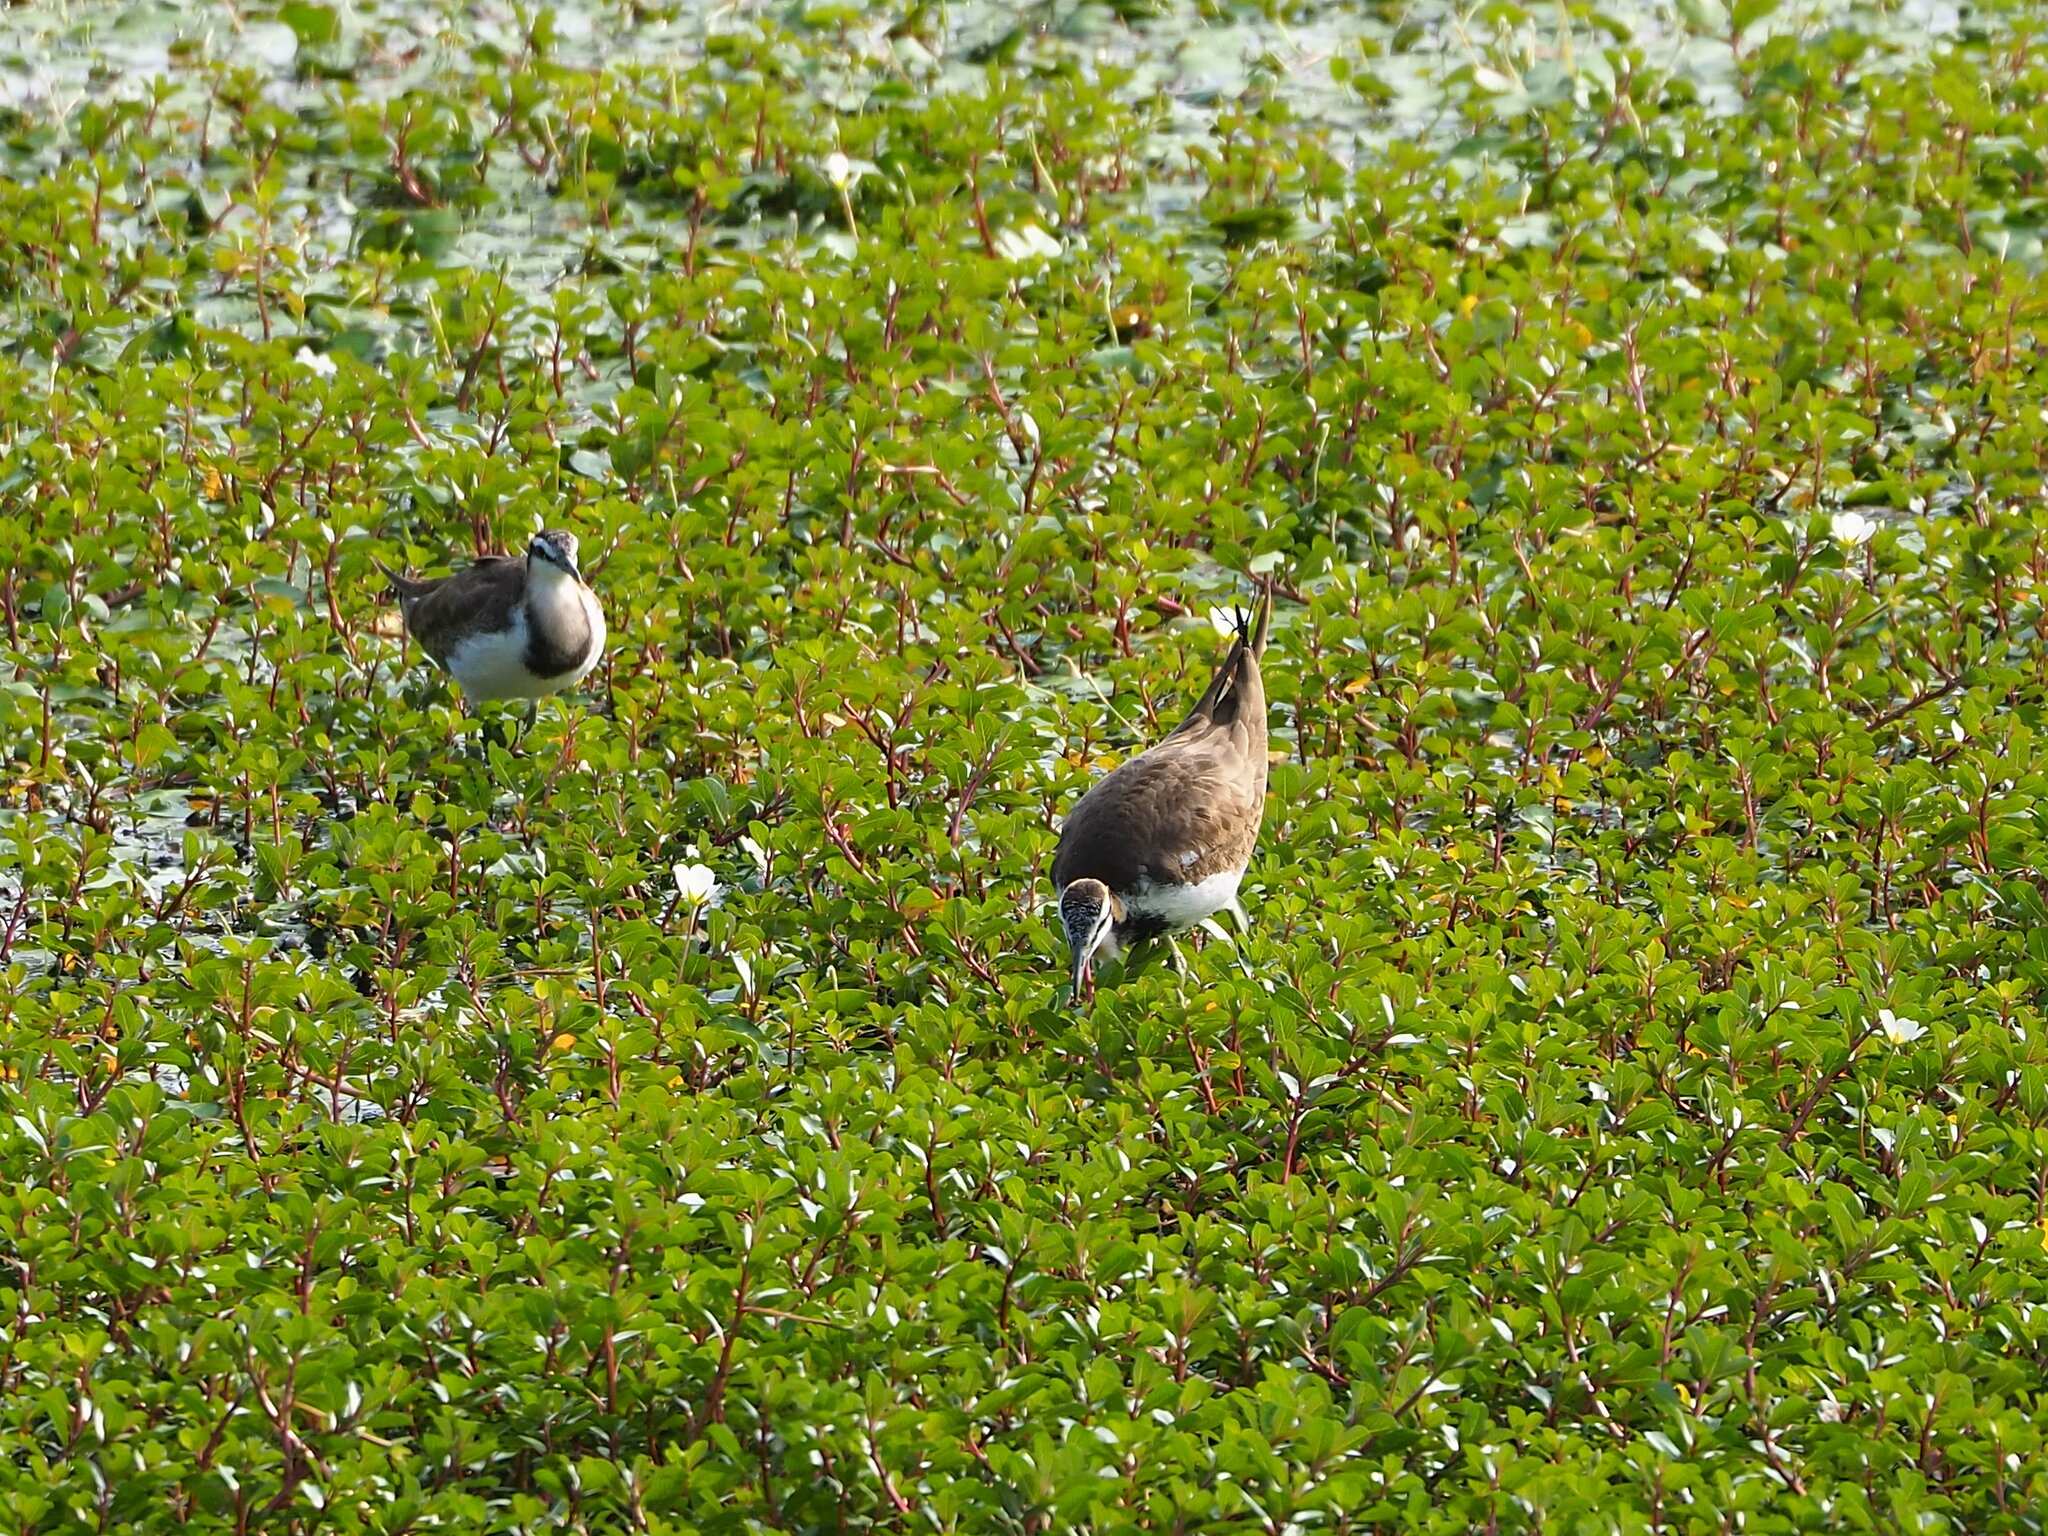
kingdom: Animalia
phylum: Chordata
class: Aves
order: Charadriiformes
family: Jacanidae
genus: Hydrophasianus
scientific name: Hydrophasianus chirurgus
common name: Pheasant-tailed jacana
